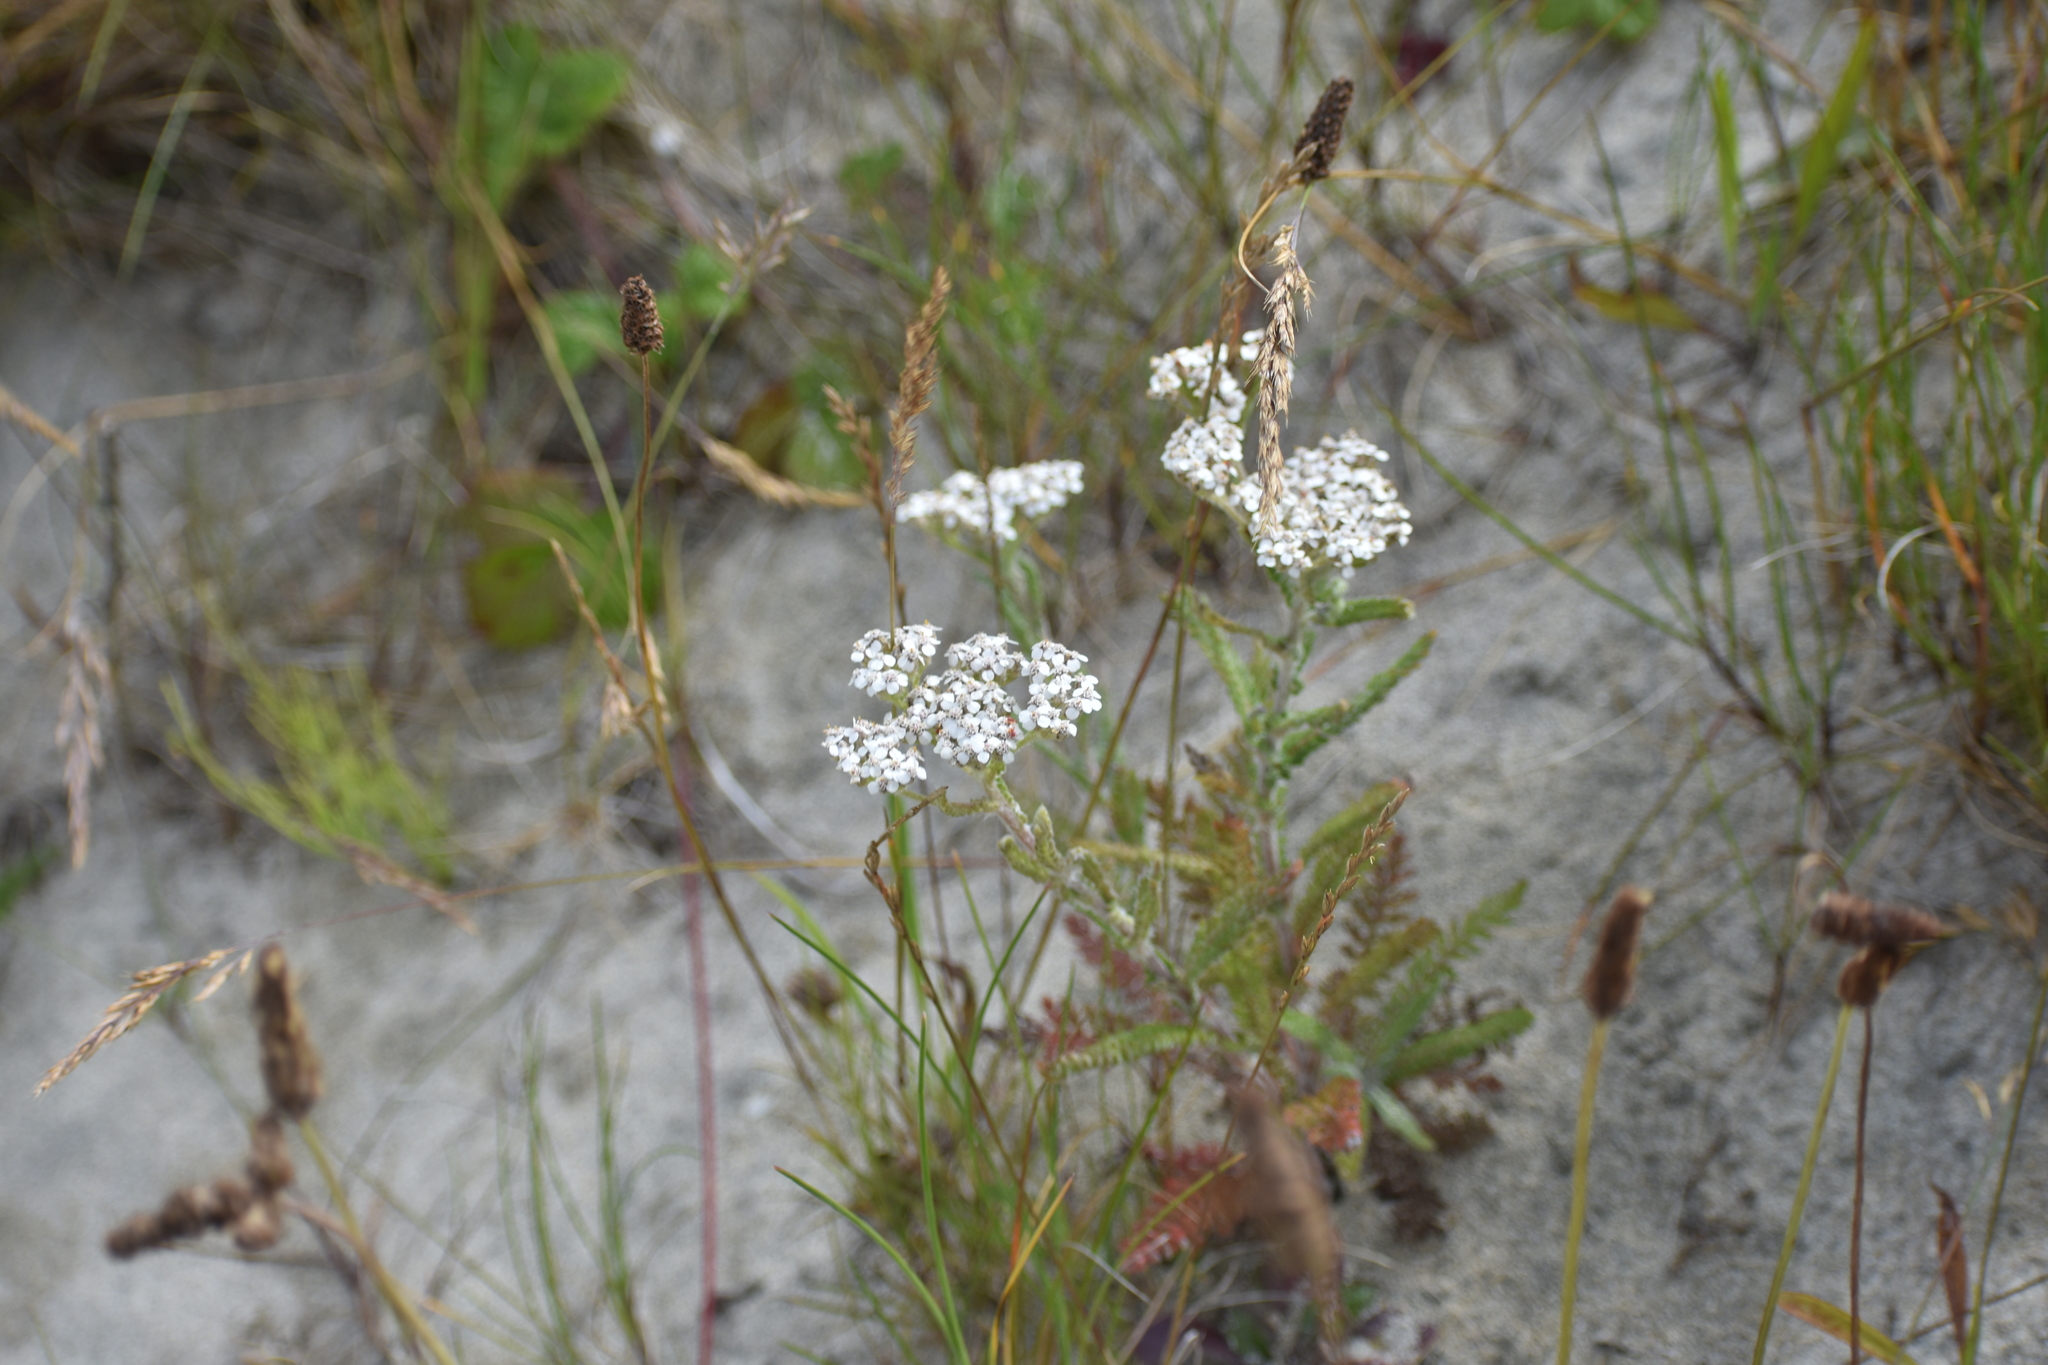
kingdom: Plantae
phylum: Tracheophyta
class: Magnoliopsida
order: Asterales
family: Asteraceae
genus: Achillea
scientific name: Achillea millefolium
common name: Yarrow
